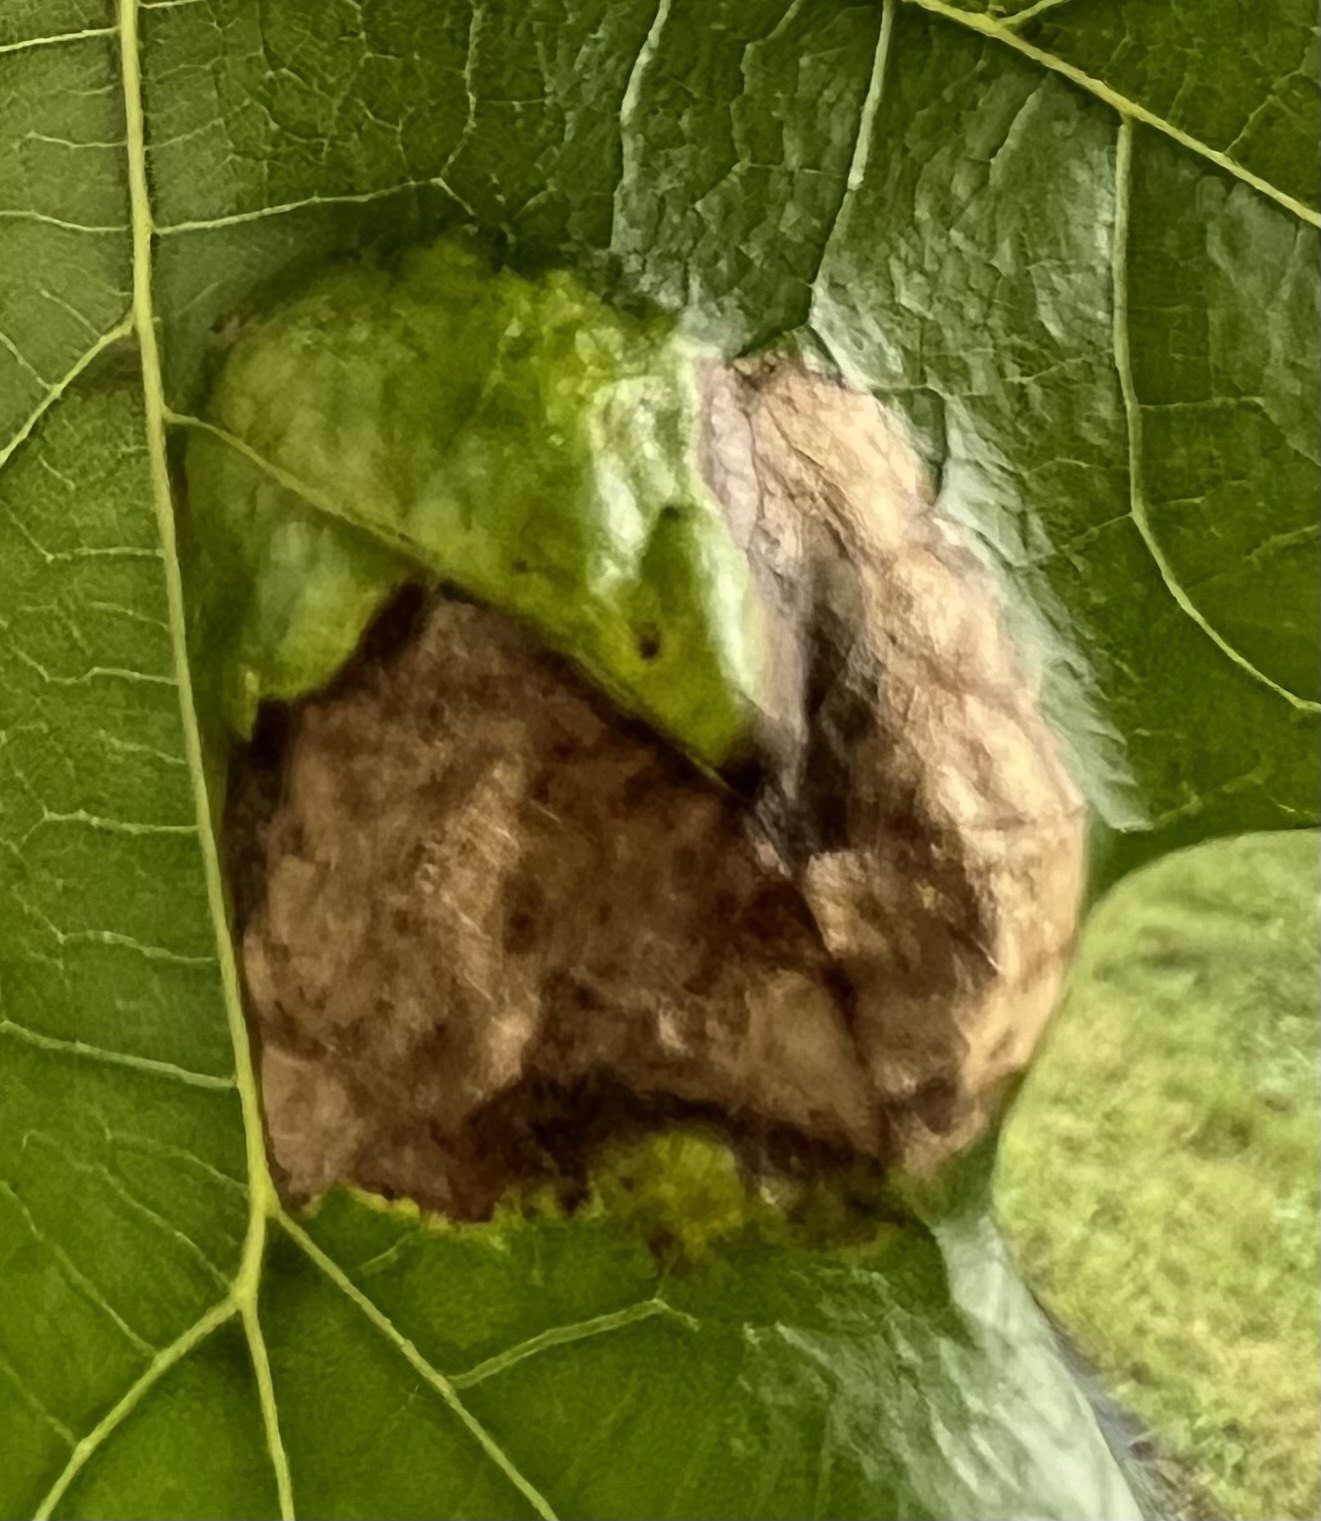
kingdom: Fungi
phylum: Ascomycota
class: Taphrinomycetes
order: Taphrinales
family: Taphrinaceae
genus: Taphrina
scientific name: Taphrina caerulescens
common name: Oak leaf blister
